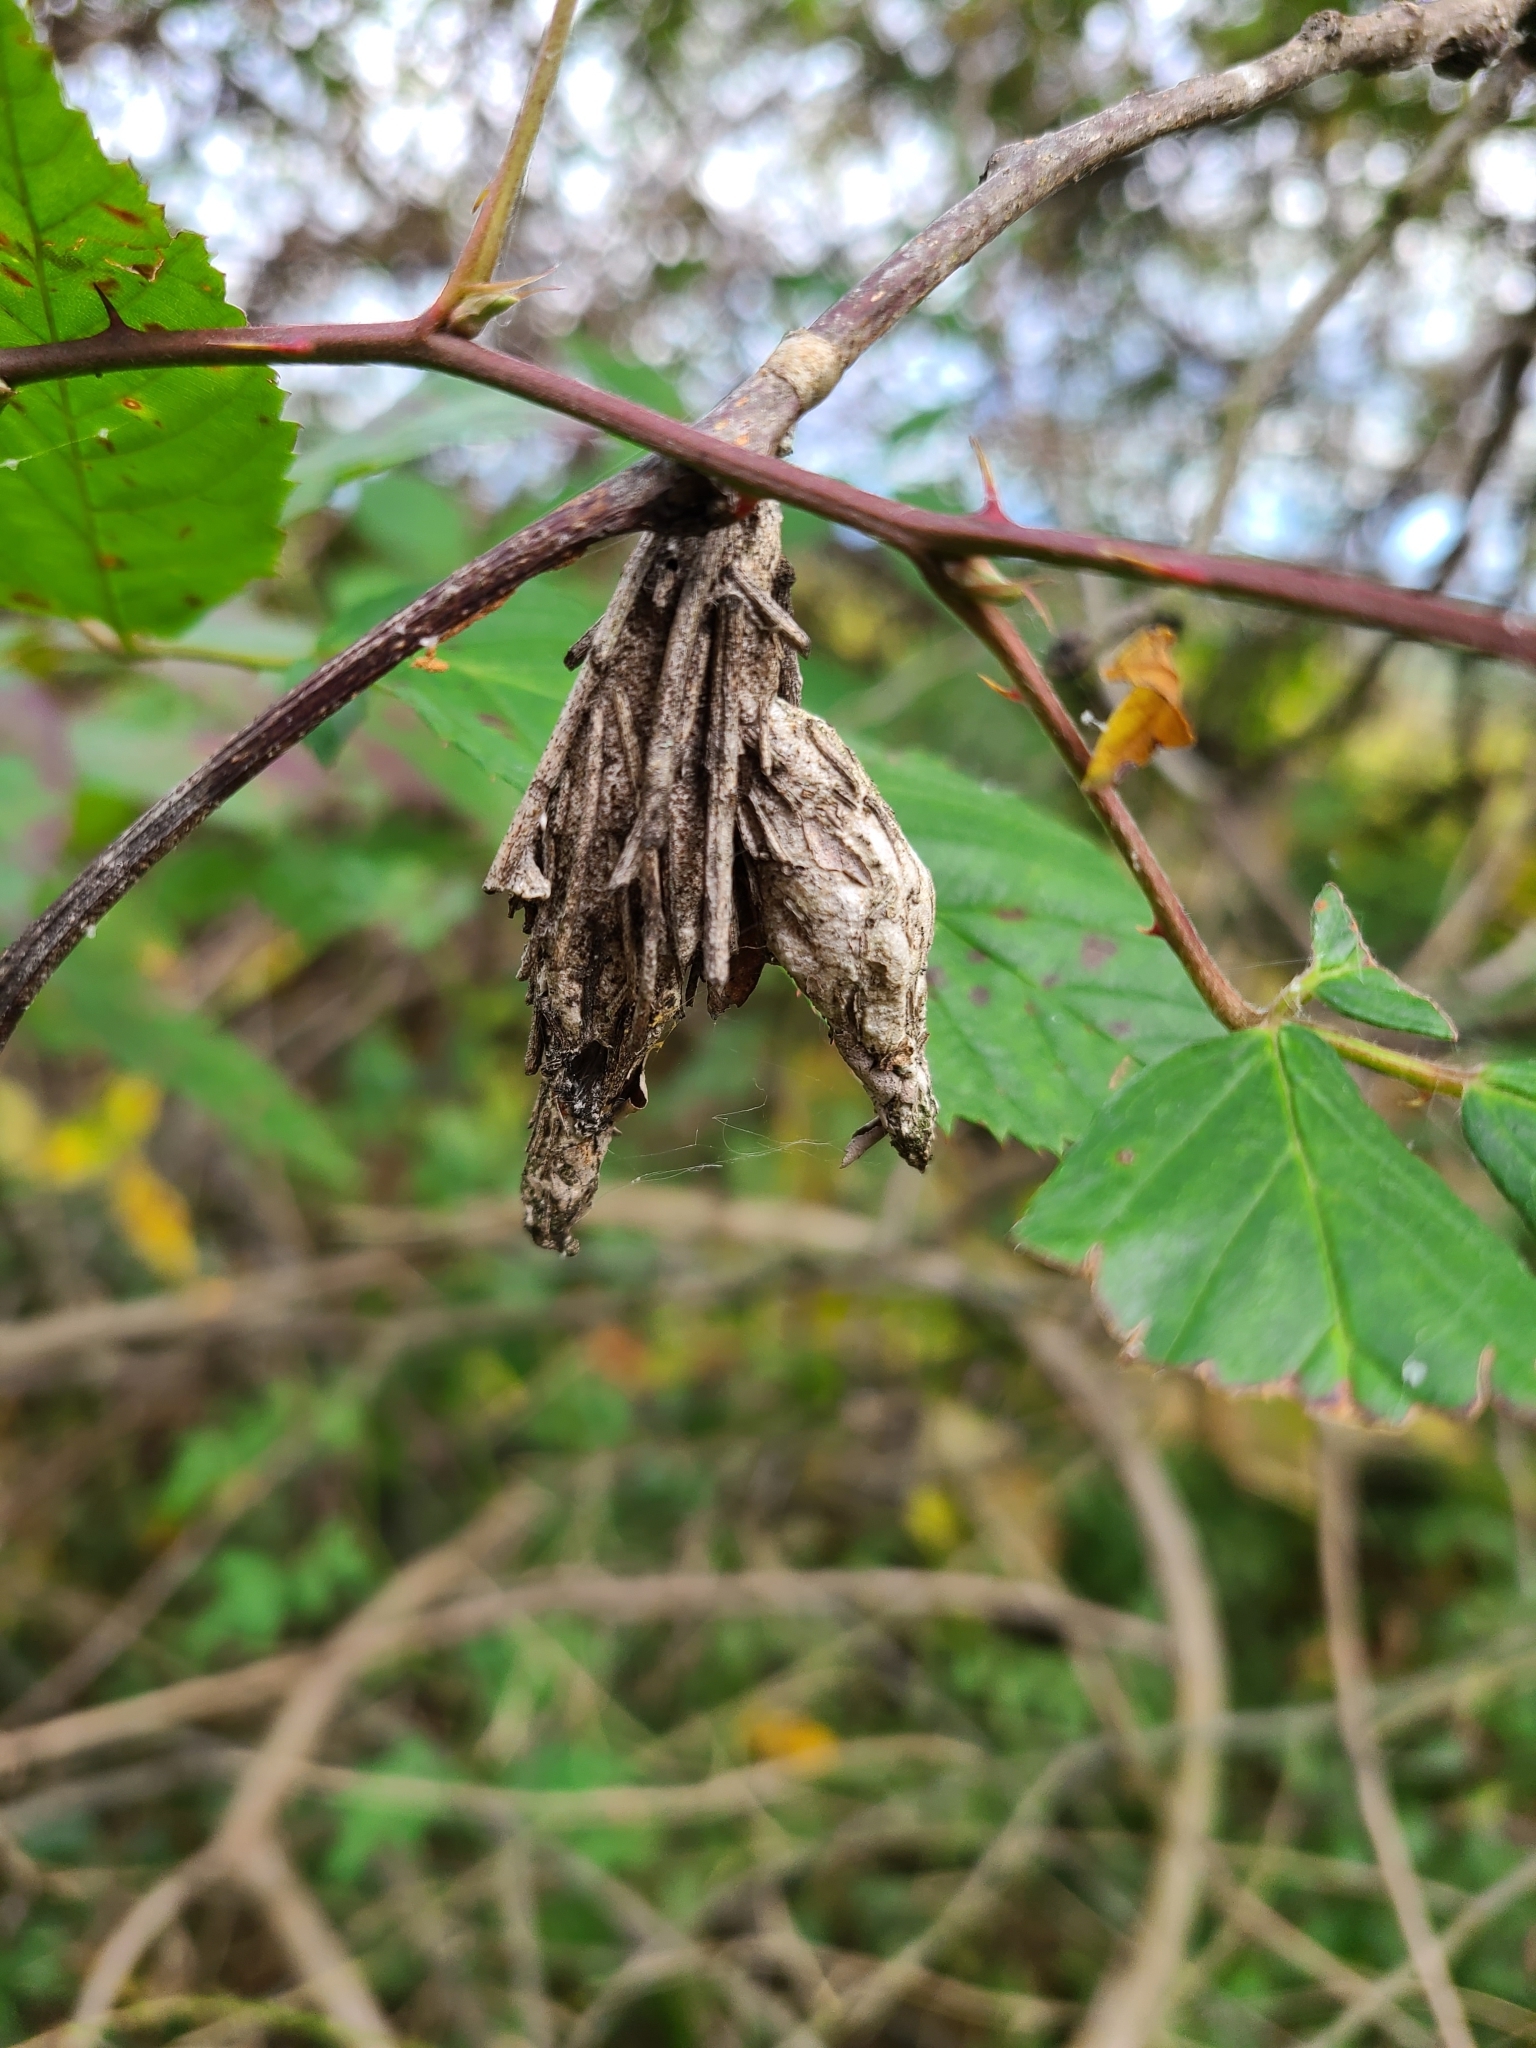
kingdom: Animalia
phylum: Arthropoda
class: Insecta
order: Lepidoptera
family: Psychidae
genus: Thyridopteryx
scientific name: Thyridopteryx ephemeraeformis
